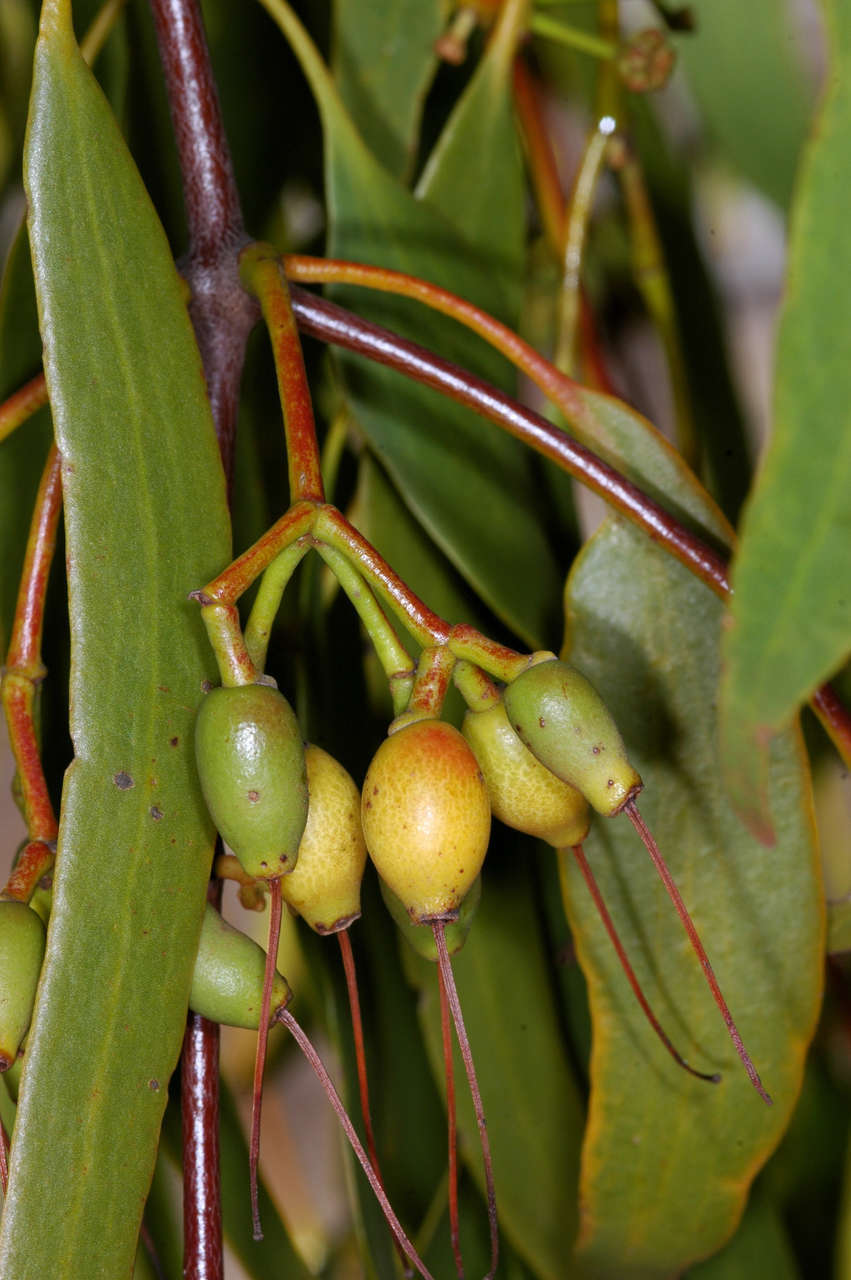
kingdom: Plantae
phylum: Tracheophyta
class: Magnoliopsida
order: Santalales
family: Loranthaceae
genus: Amyema
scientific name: Amyema miquelii
